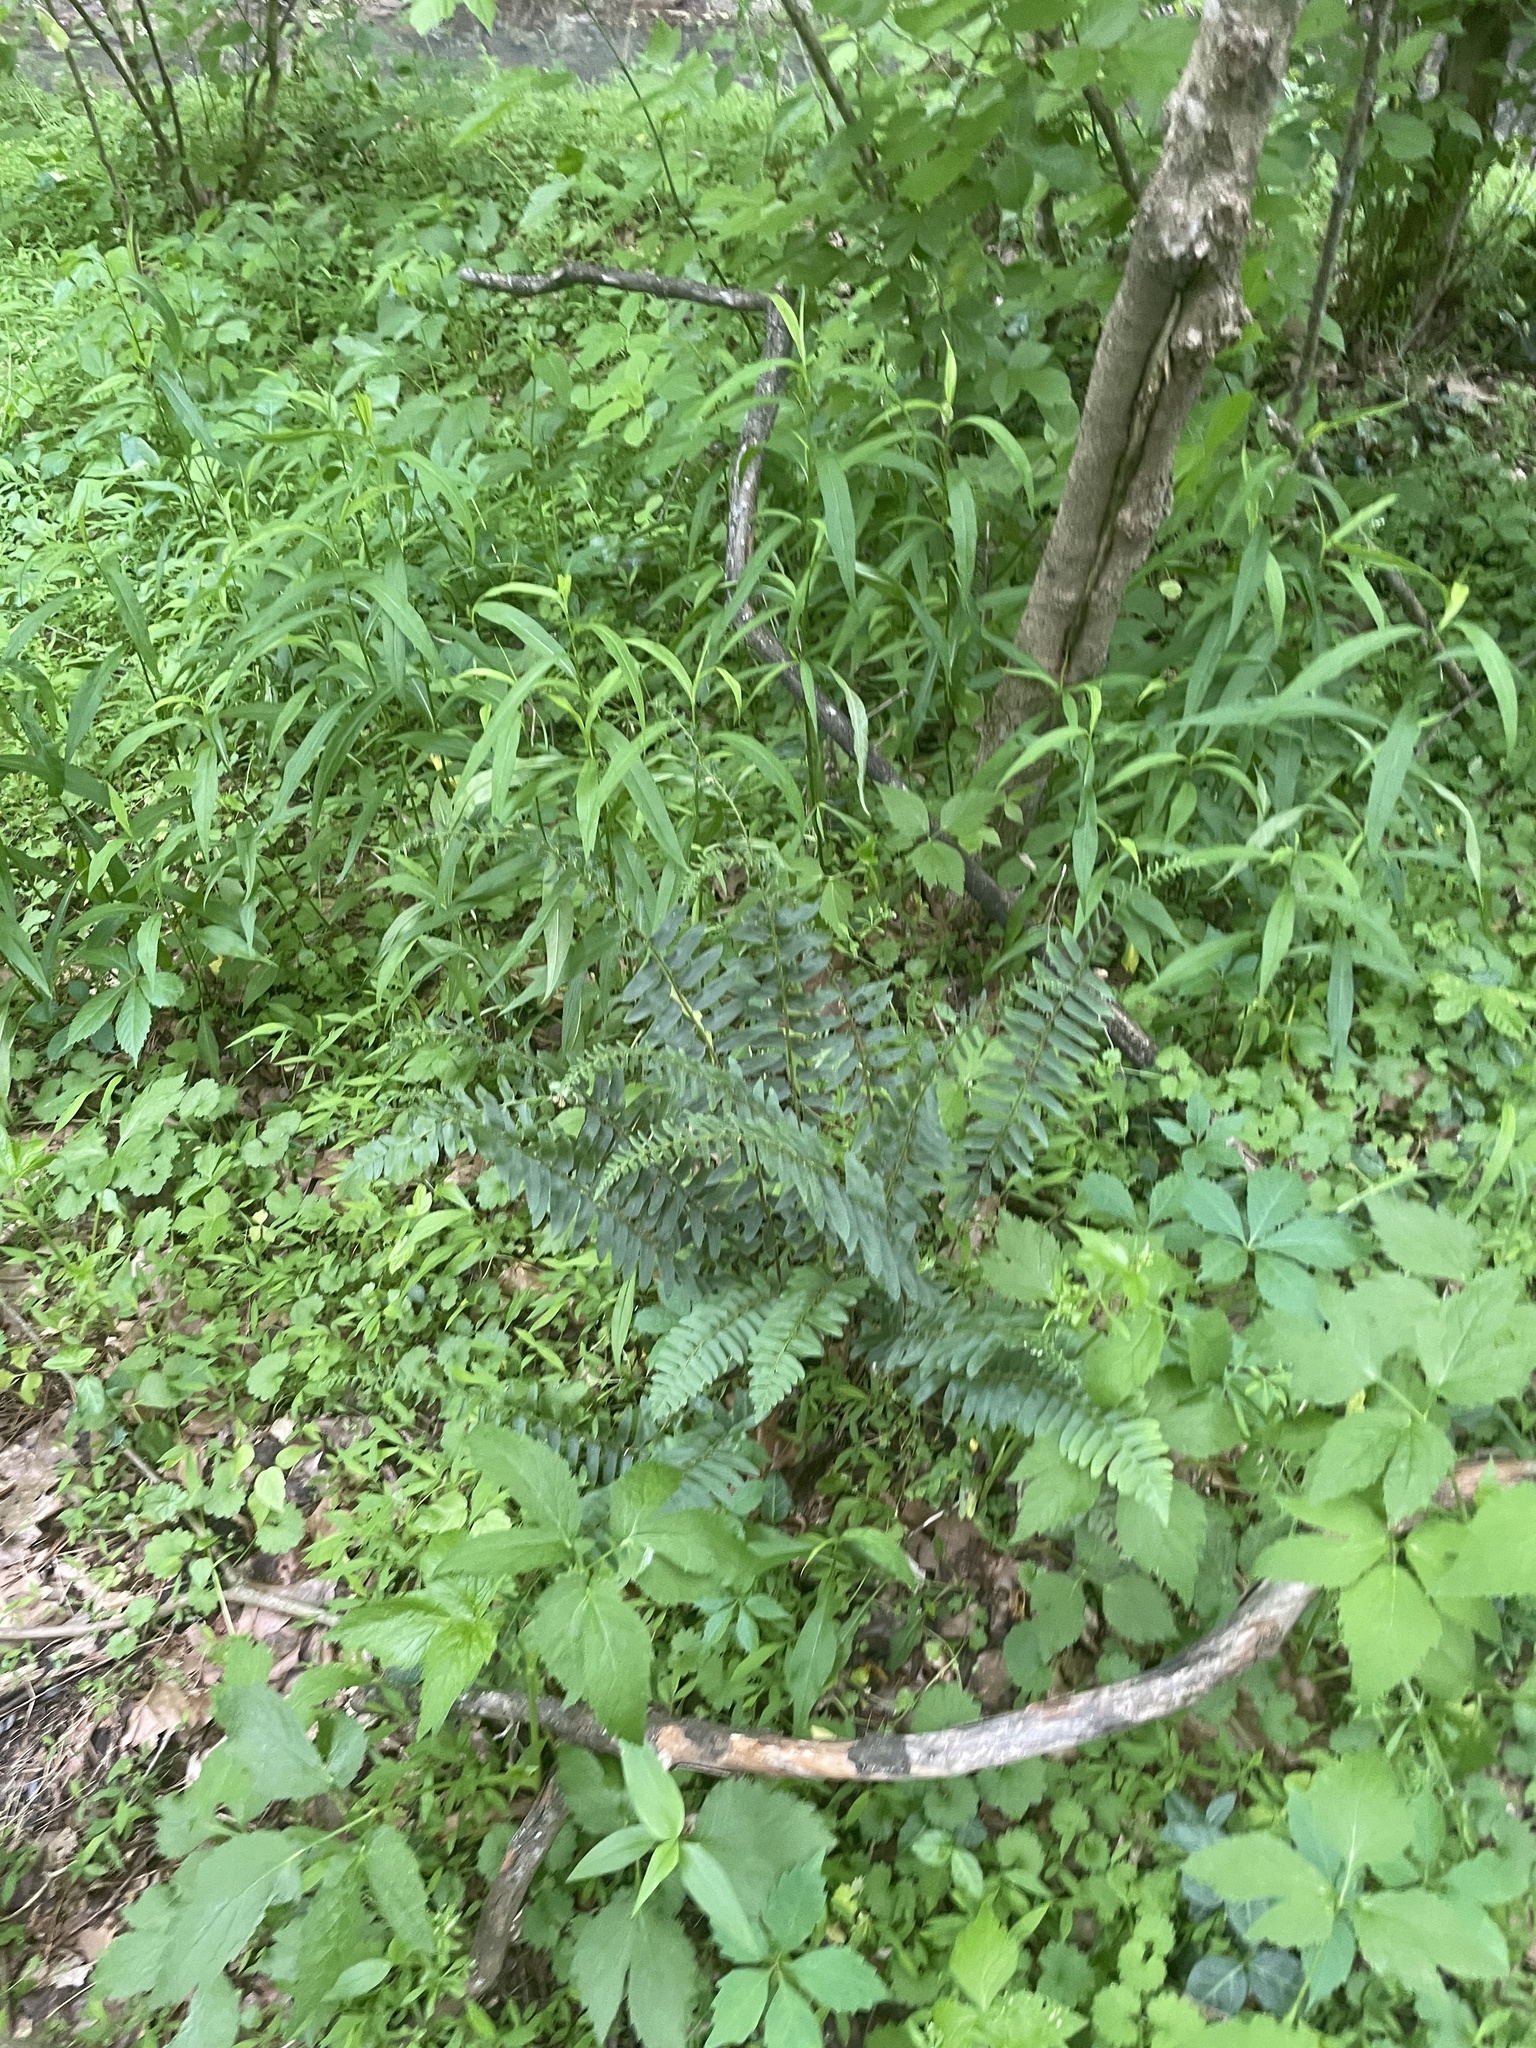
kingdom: Plantae
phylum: Tracheophyta
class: Polypodiopsida
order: Polypodiales
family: Dryopteridaceae
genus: Polystichum
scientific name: Polystichum acrostichoides
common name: Christmas fern
